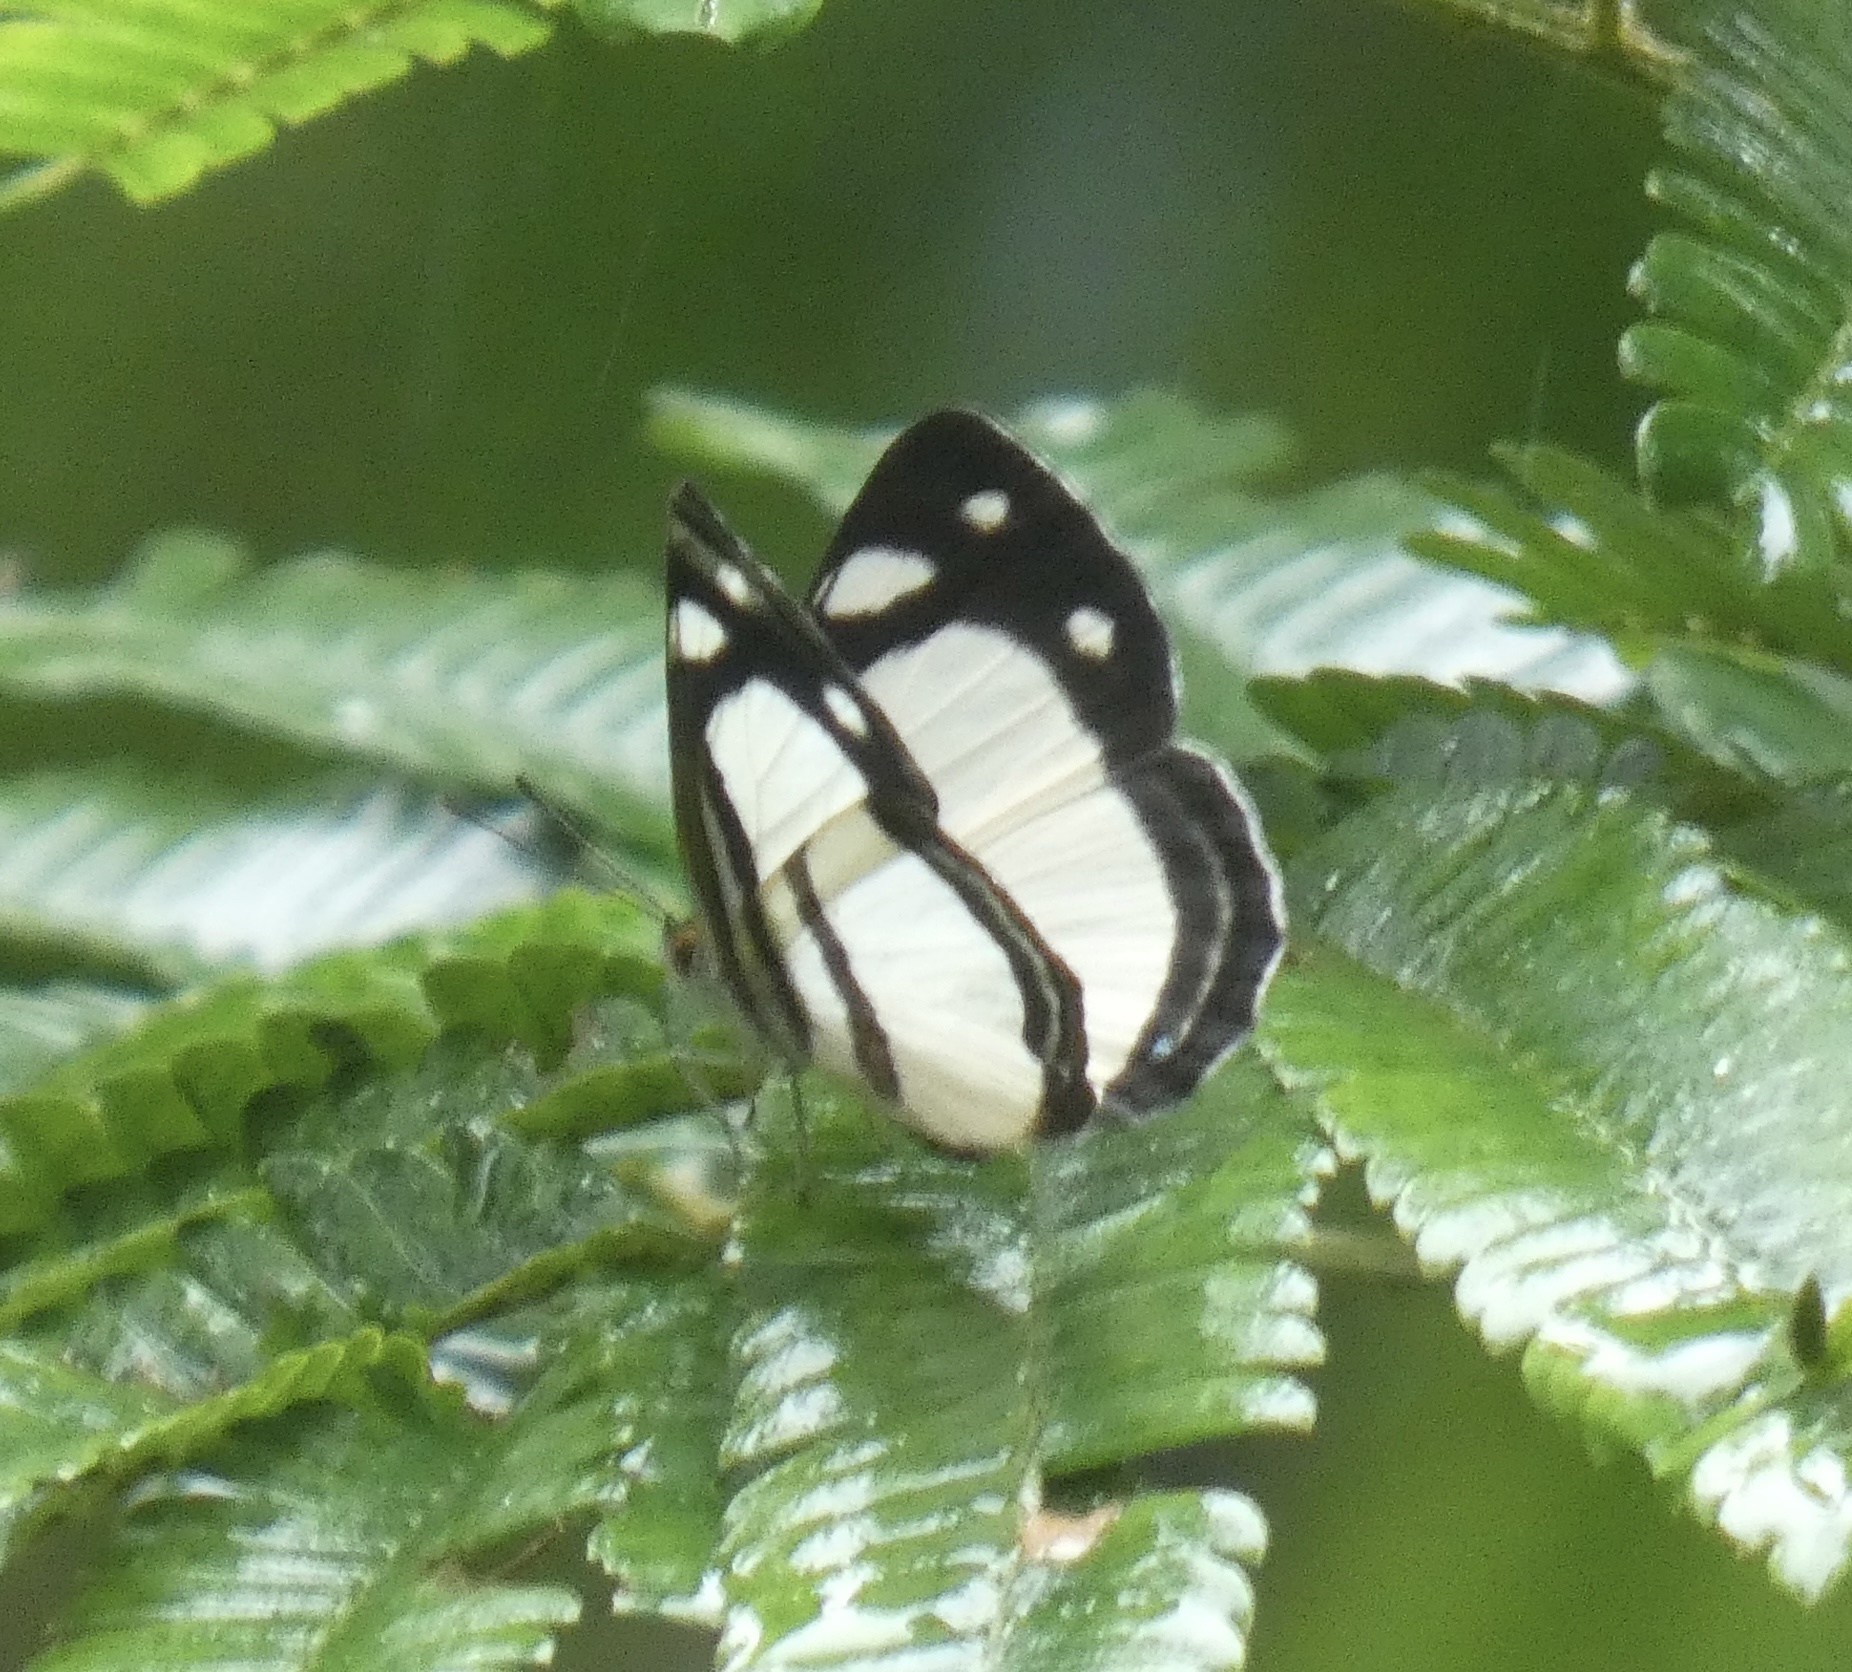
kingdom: Animalia
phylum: Arthropoda
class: Insecta
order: Lepidoptera
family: Nymphalidae
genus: Dynamine
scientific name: Dynamine athemon
